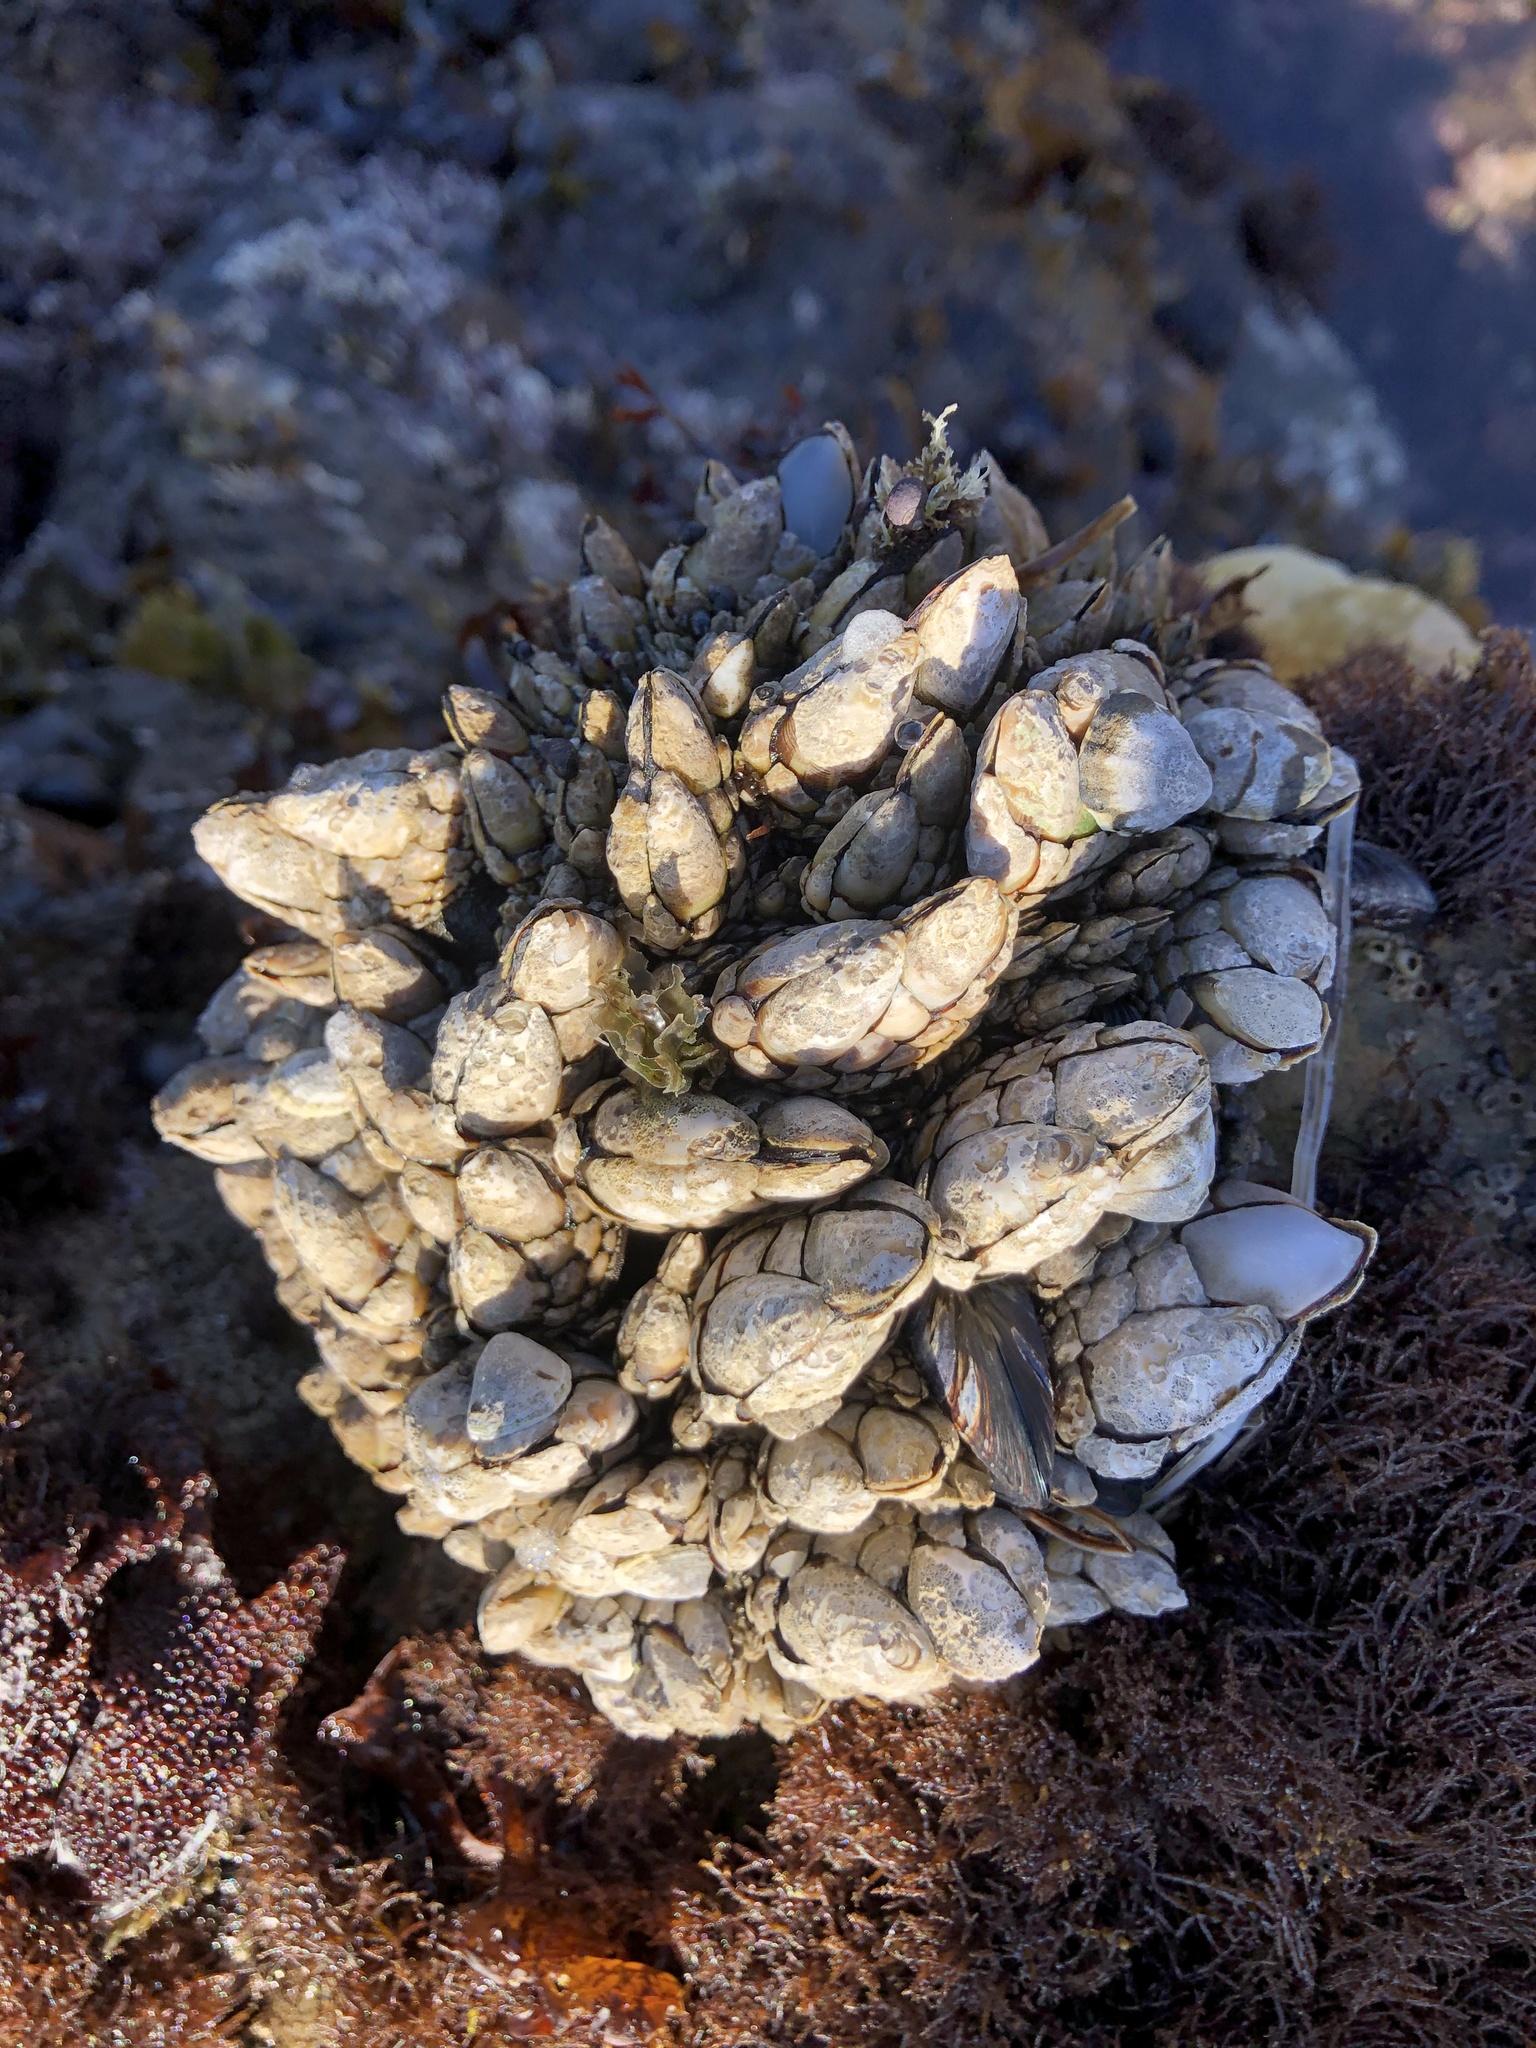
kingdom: Animalia
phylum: Arthropoda
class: Maxillopoda
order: Pedunculata
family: Pollicipedidae
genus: Pollicipes
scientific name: Pollicipes polymerus
